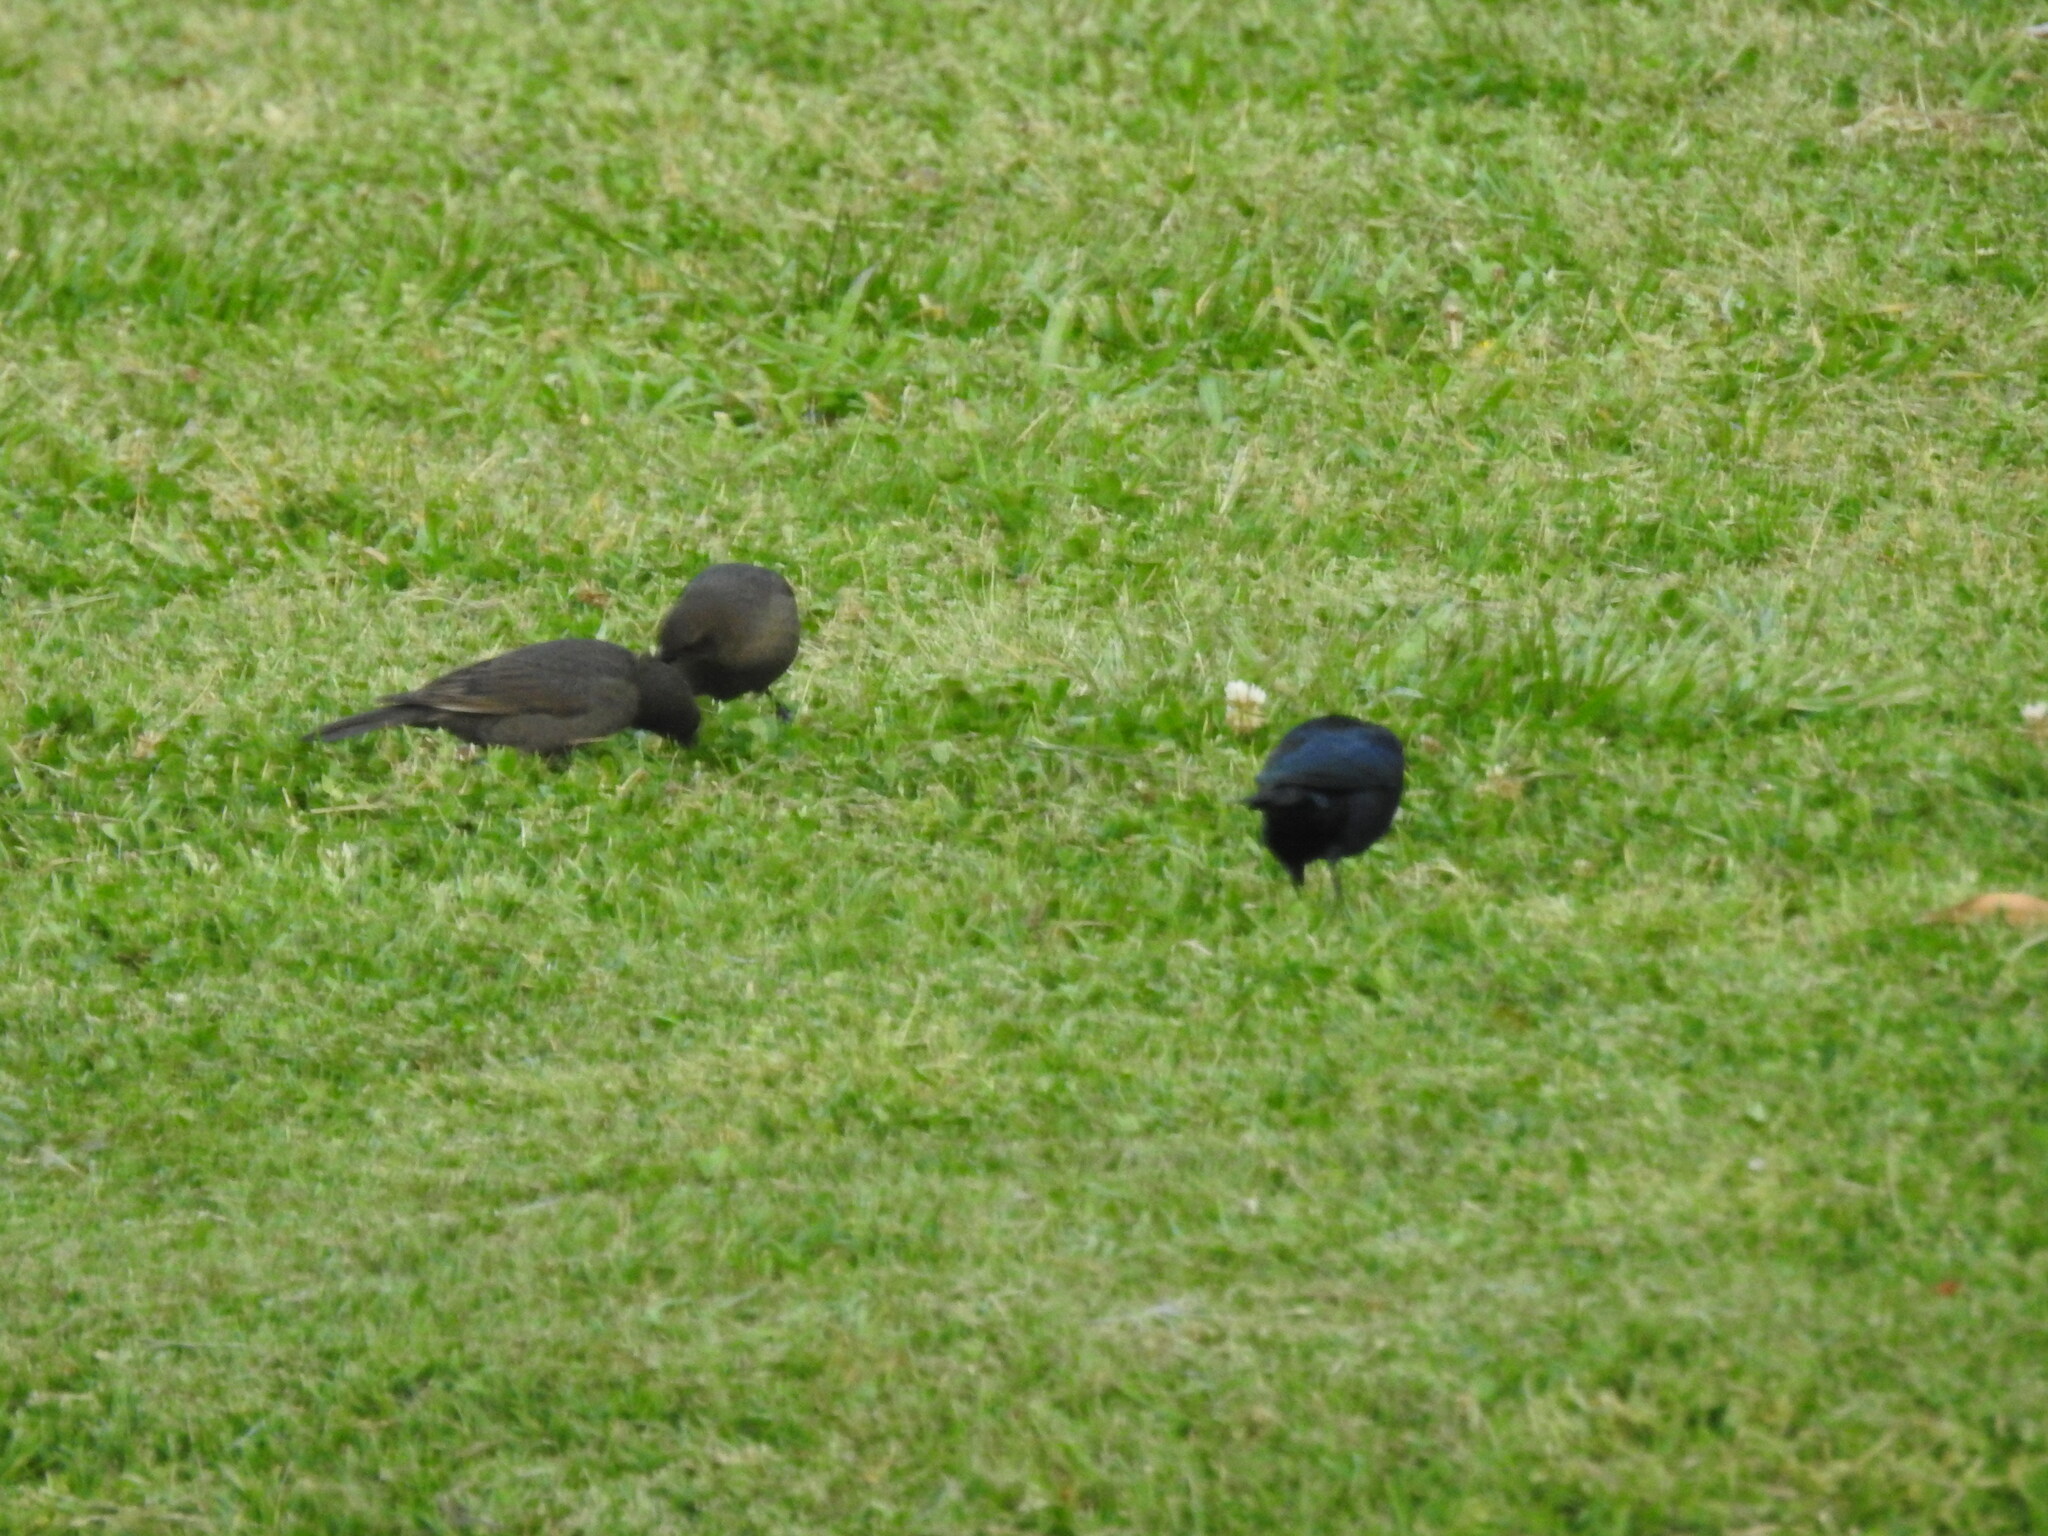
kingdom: Animalia
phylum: Chordata
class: Aves
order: Passeriformes
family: Icteridae
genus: Molothrus
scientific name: Molothrus bonariensis
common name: Shiny cowbird
